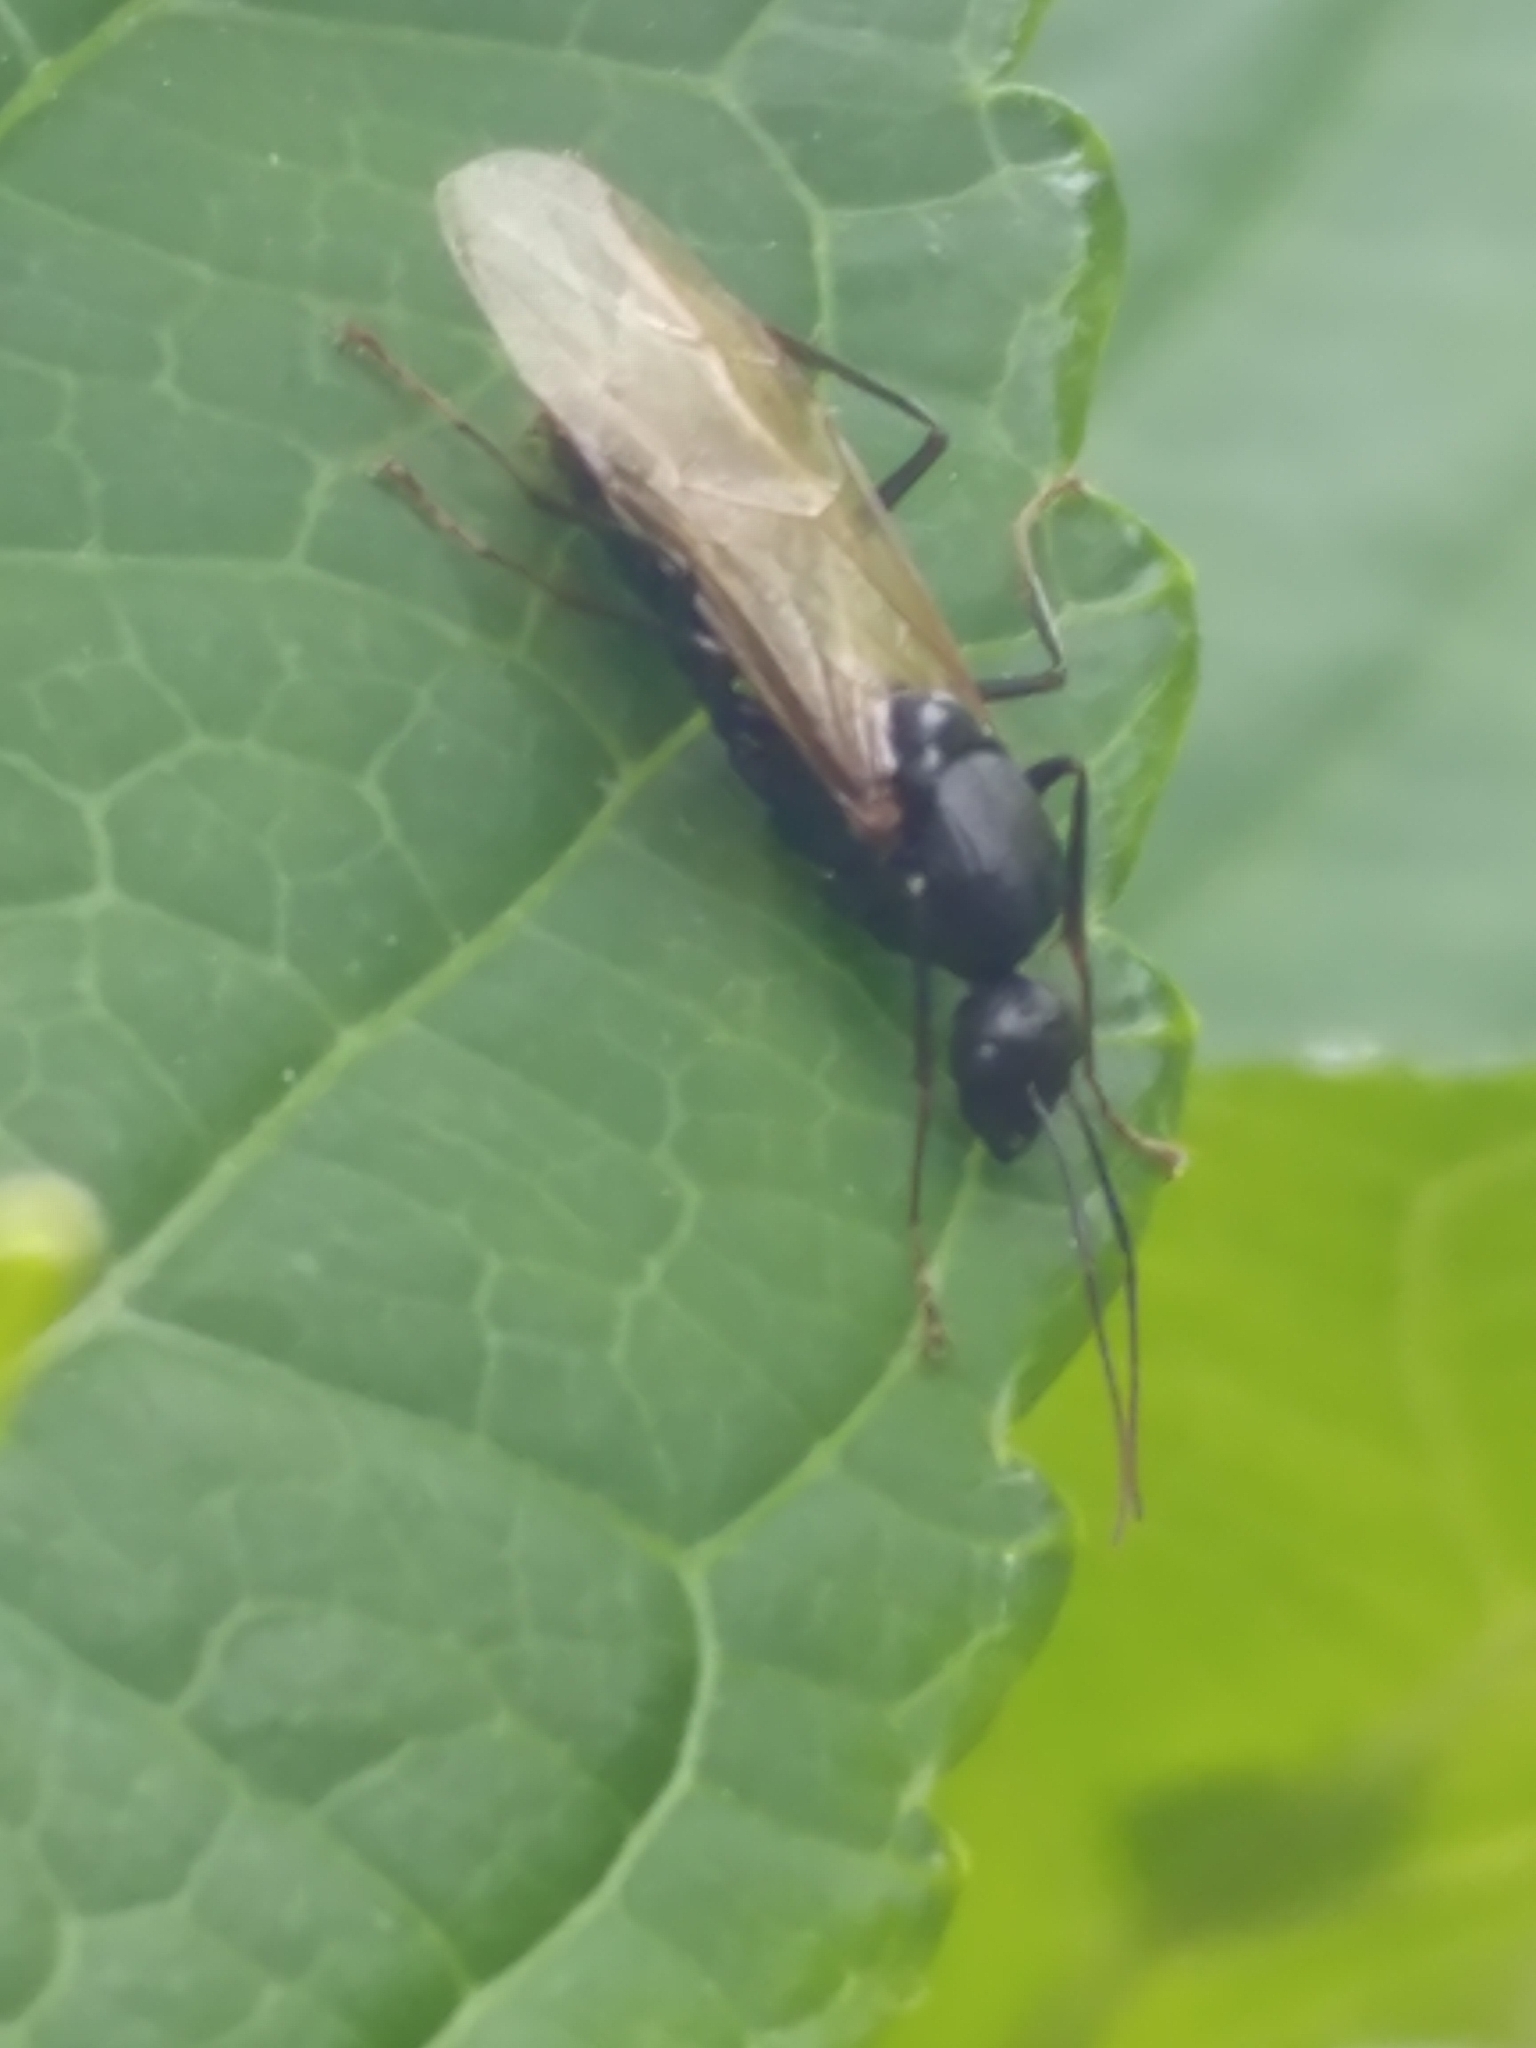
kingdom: Animalia
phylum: Arthropoda
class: Insecta
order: Hymenoptera
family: Formicidae
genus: Camponotus
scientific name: Camponotus pennsylvanicus
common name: Black carpenter ant
